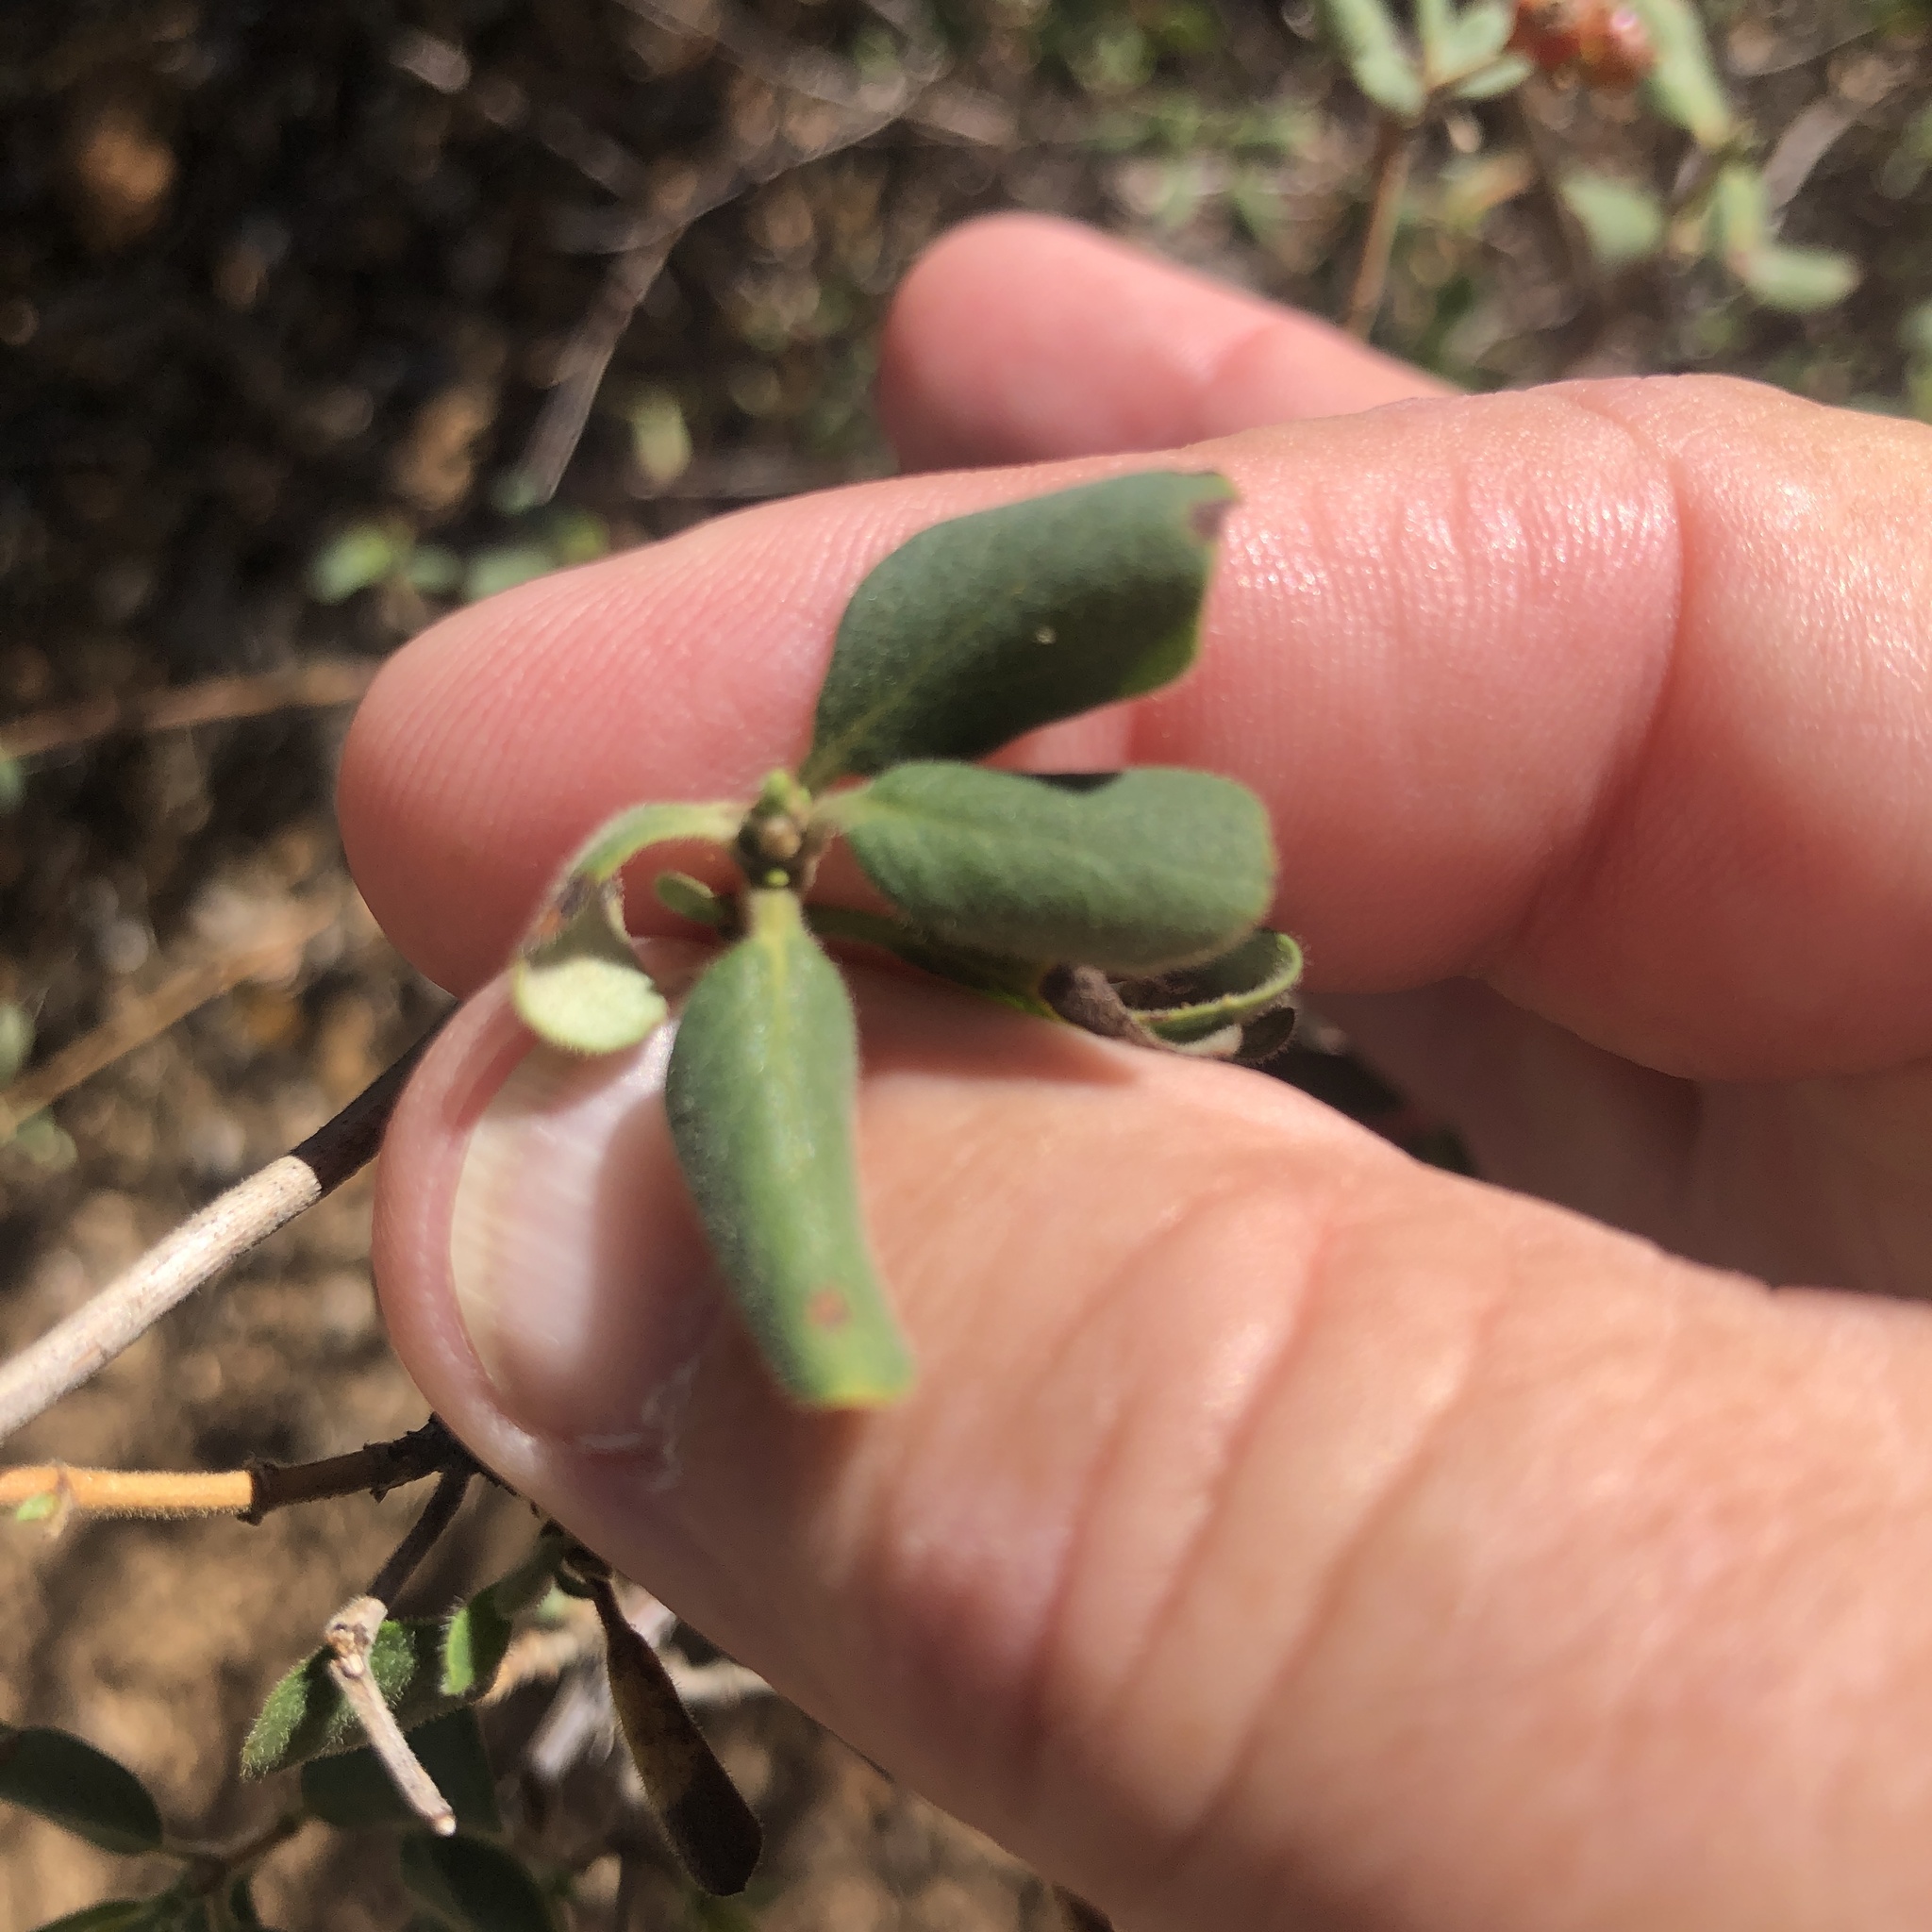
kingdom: Plantae
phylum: Tracheophyta
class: Magnoliopsida
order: Dipsacales
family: Caprifoliaceae
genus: Lonicera
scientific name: Lonicera subspicata
